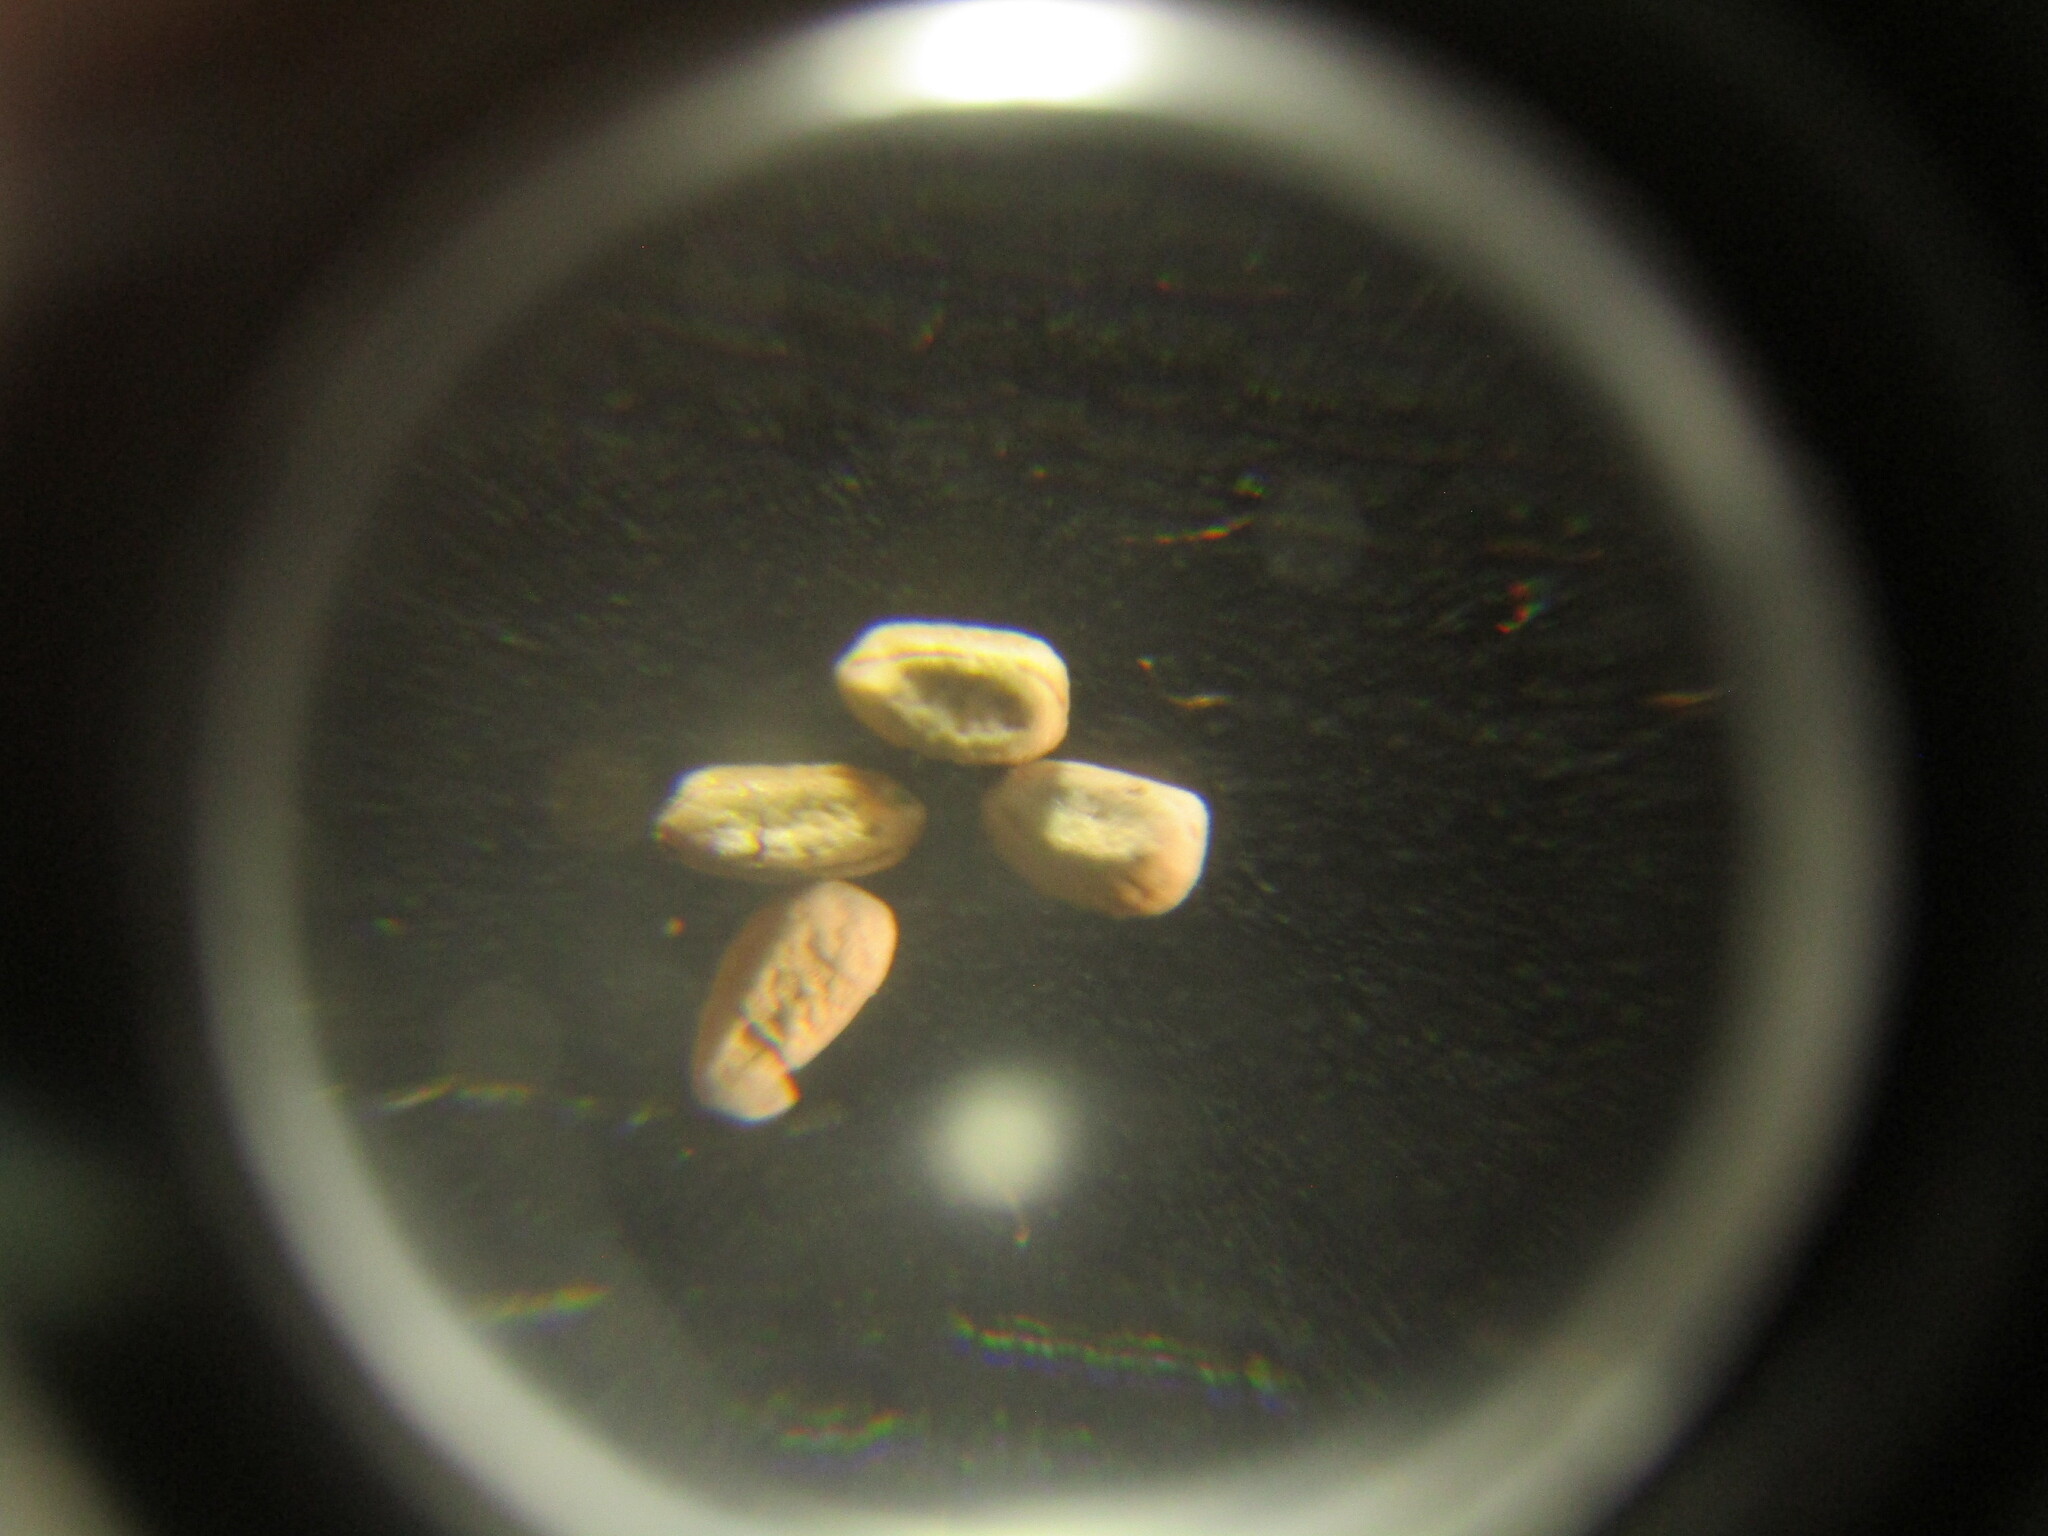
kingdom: Plantae
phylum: Tracheophyta
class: Magnoliopsida
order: Malpighiales
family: Euphorbiaceae
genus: Euphorbia
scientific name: Euphorbia klotzschii
